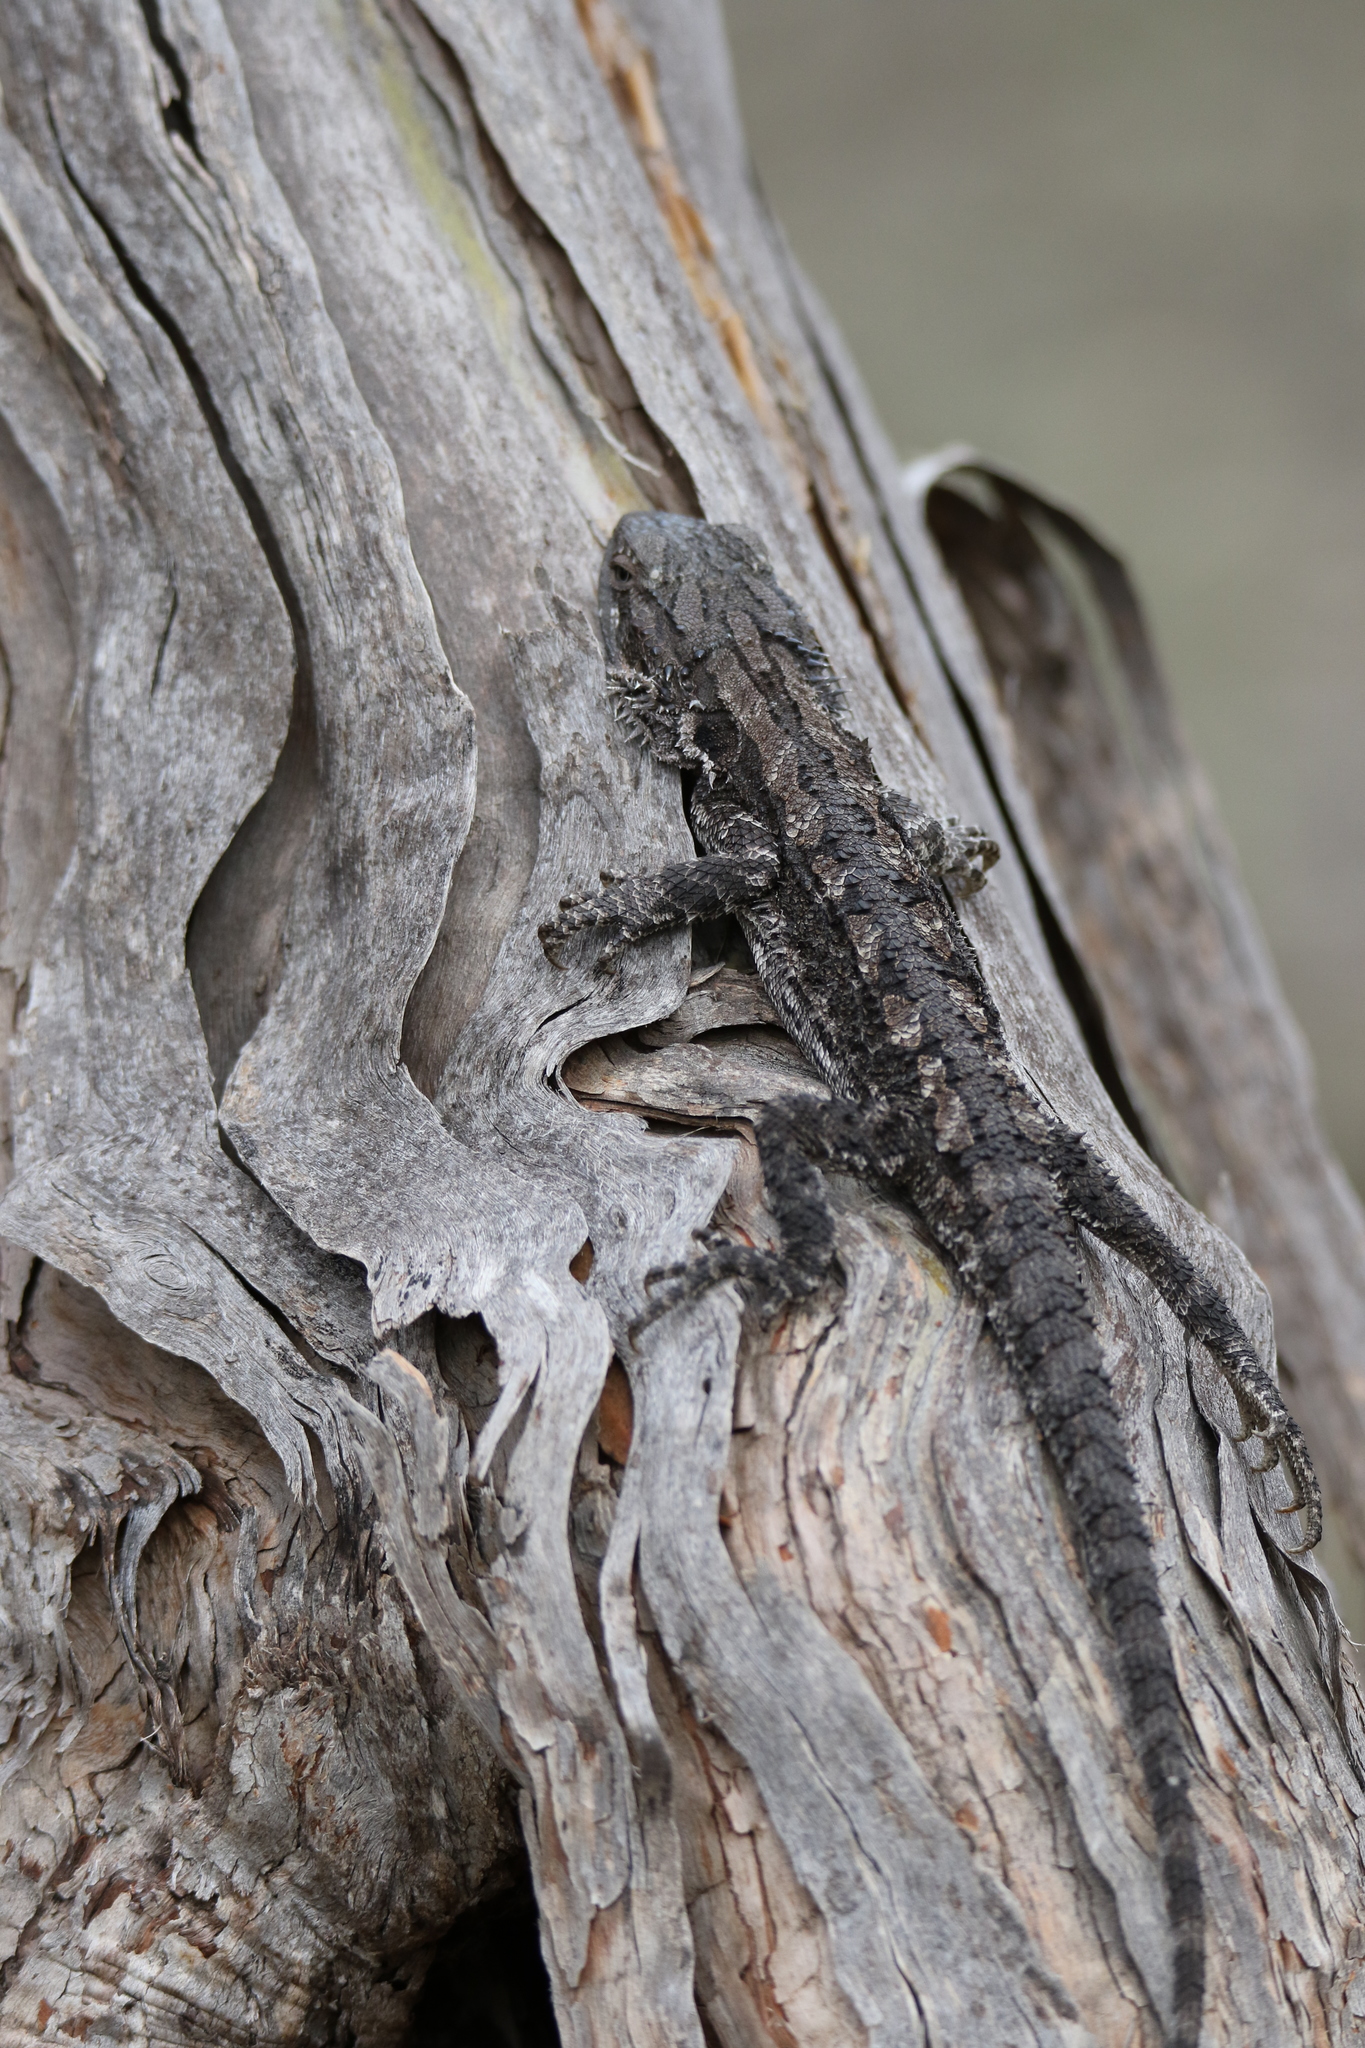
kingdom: Animalia
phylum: Chordata
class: Squamata
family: Agamidae
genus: Pogona
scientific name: Pogona barbata
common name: Bearded dragon
